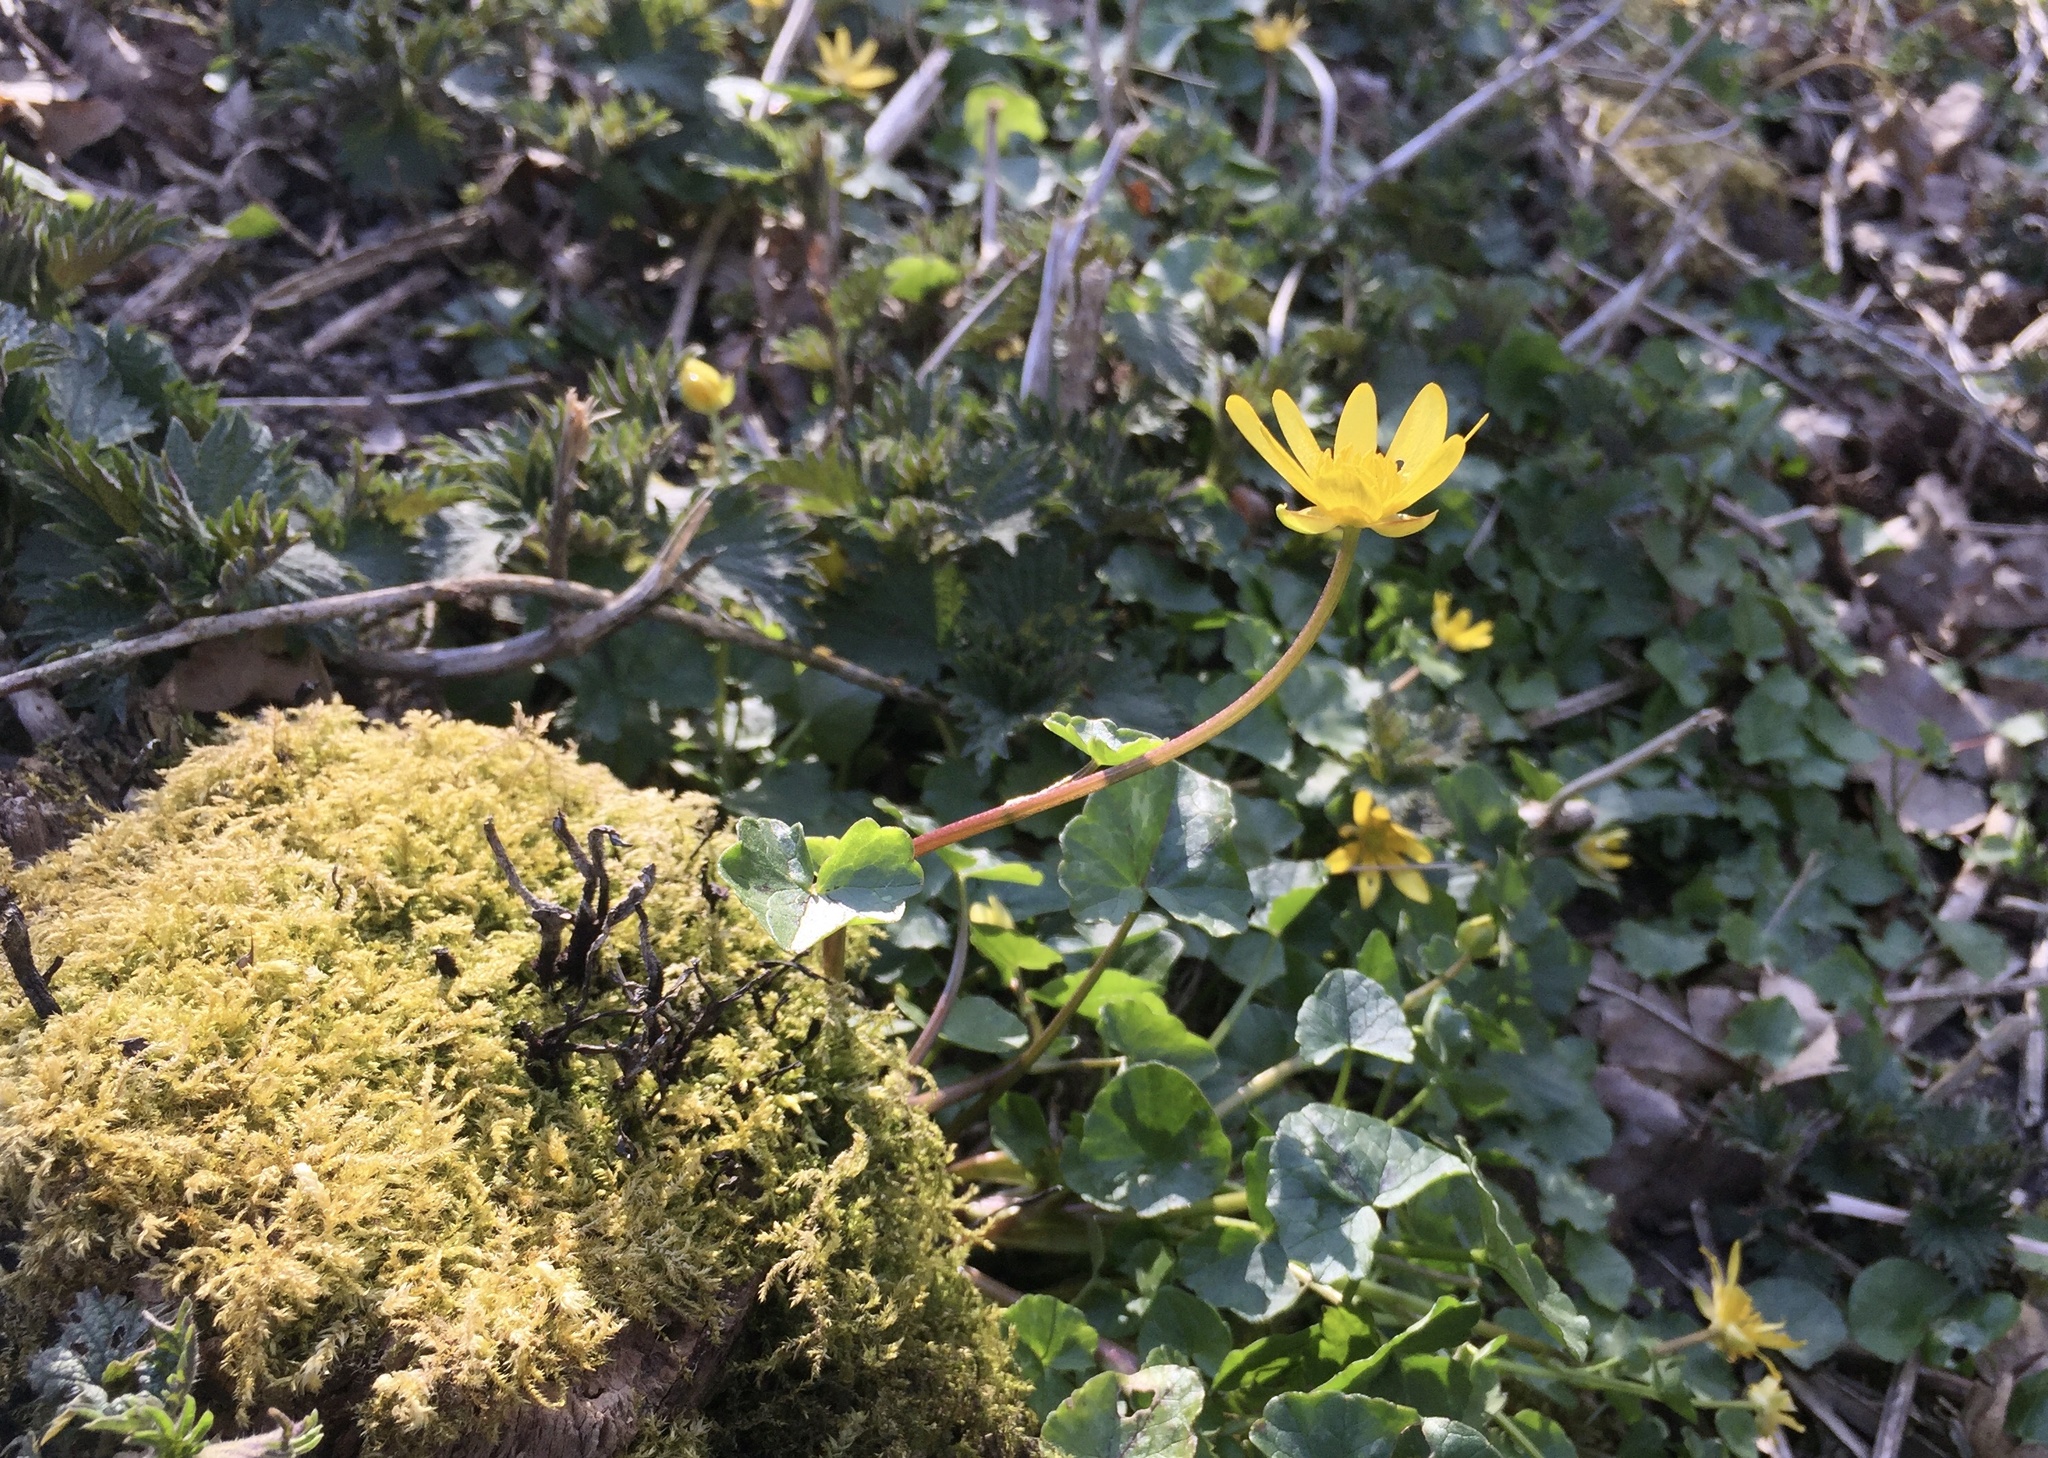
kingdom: Plantae
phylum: Tracheophyta
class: Magnoliopsida
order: Ranunculales
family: Ranunculaceae
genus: Ficaria
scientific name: Ficaria verna
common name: Lesser celandine
